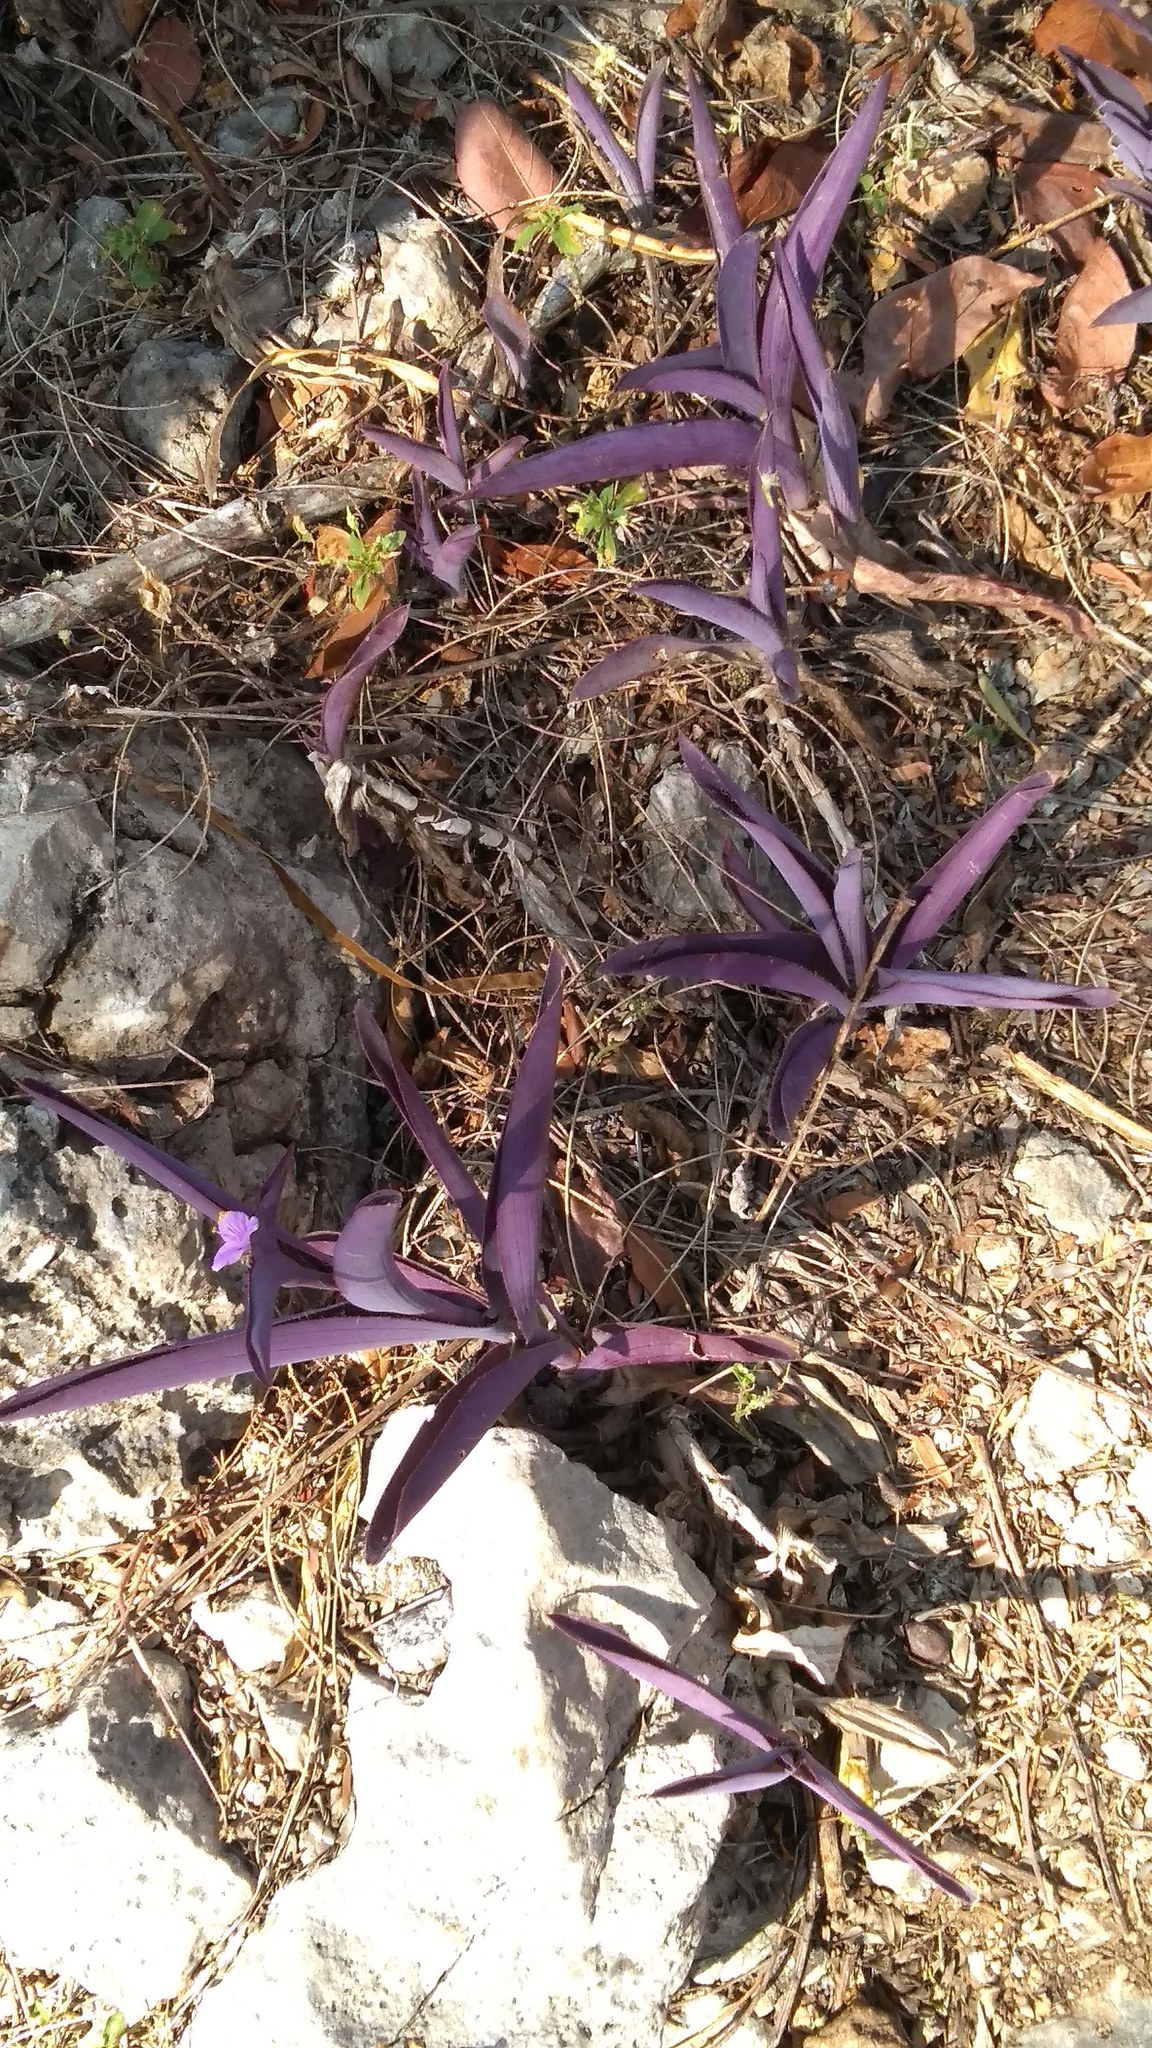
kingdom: Plantae
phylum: Tracheophyta
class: Liliopsida
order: Commelinales
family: Commelinaceae
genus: Tradescantia
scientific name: Tradescantia pallida
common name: Purpleheart
